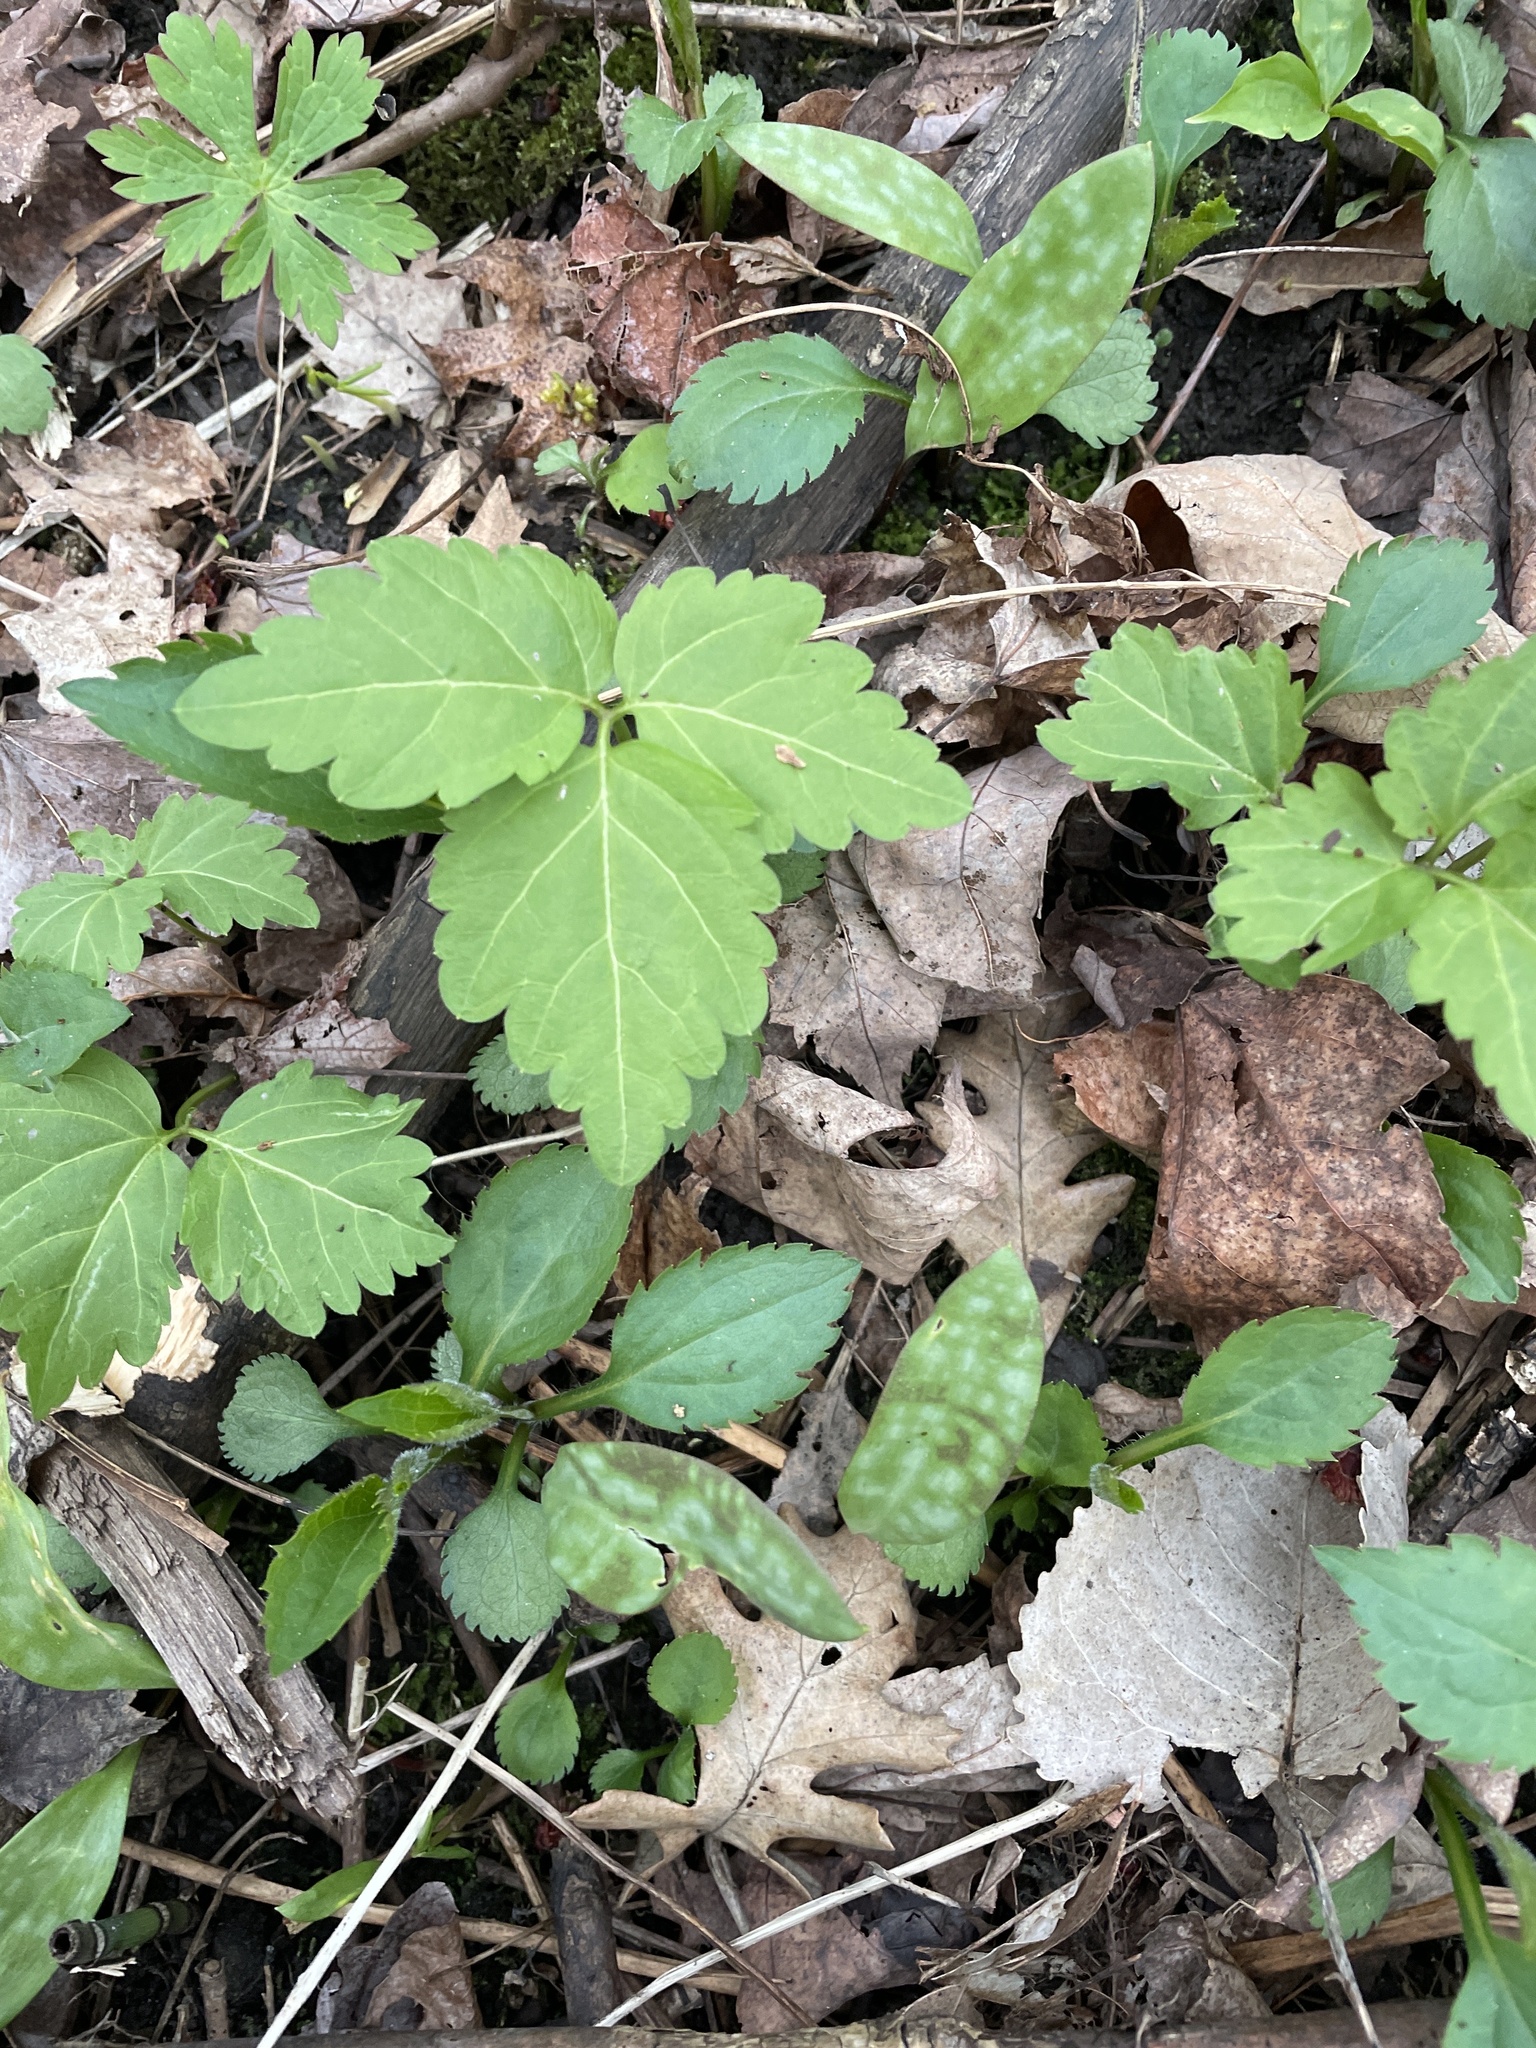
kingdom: Plantae
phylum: Tracheophyta
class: Magnoliopsida
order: Brassicales
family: Brassicaceae
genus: Cardamine
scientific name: Cardamine diphylla
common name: Broad-leaved toothwort
